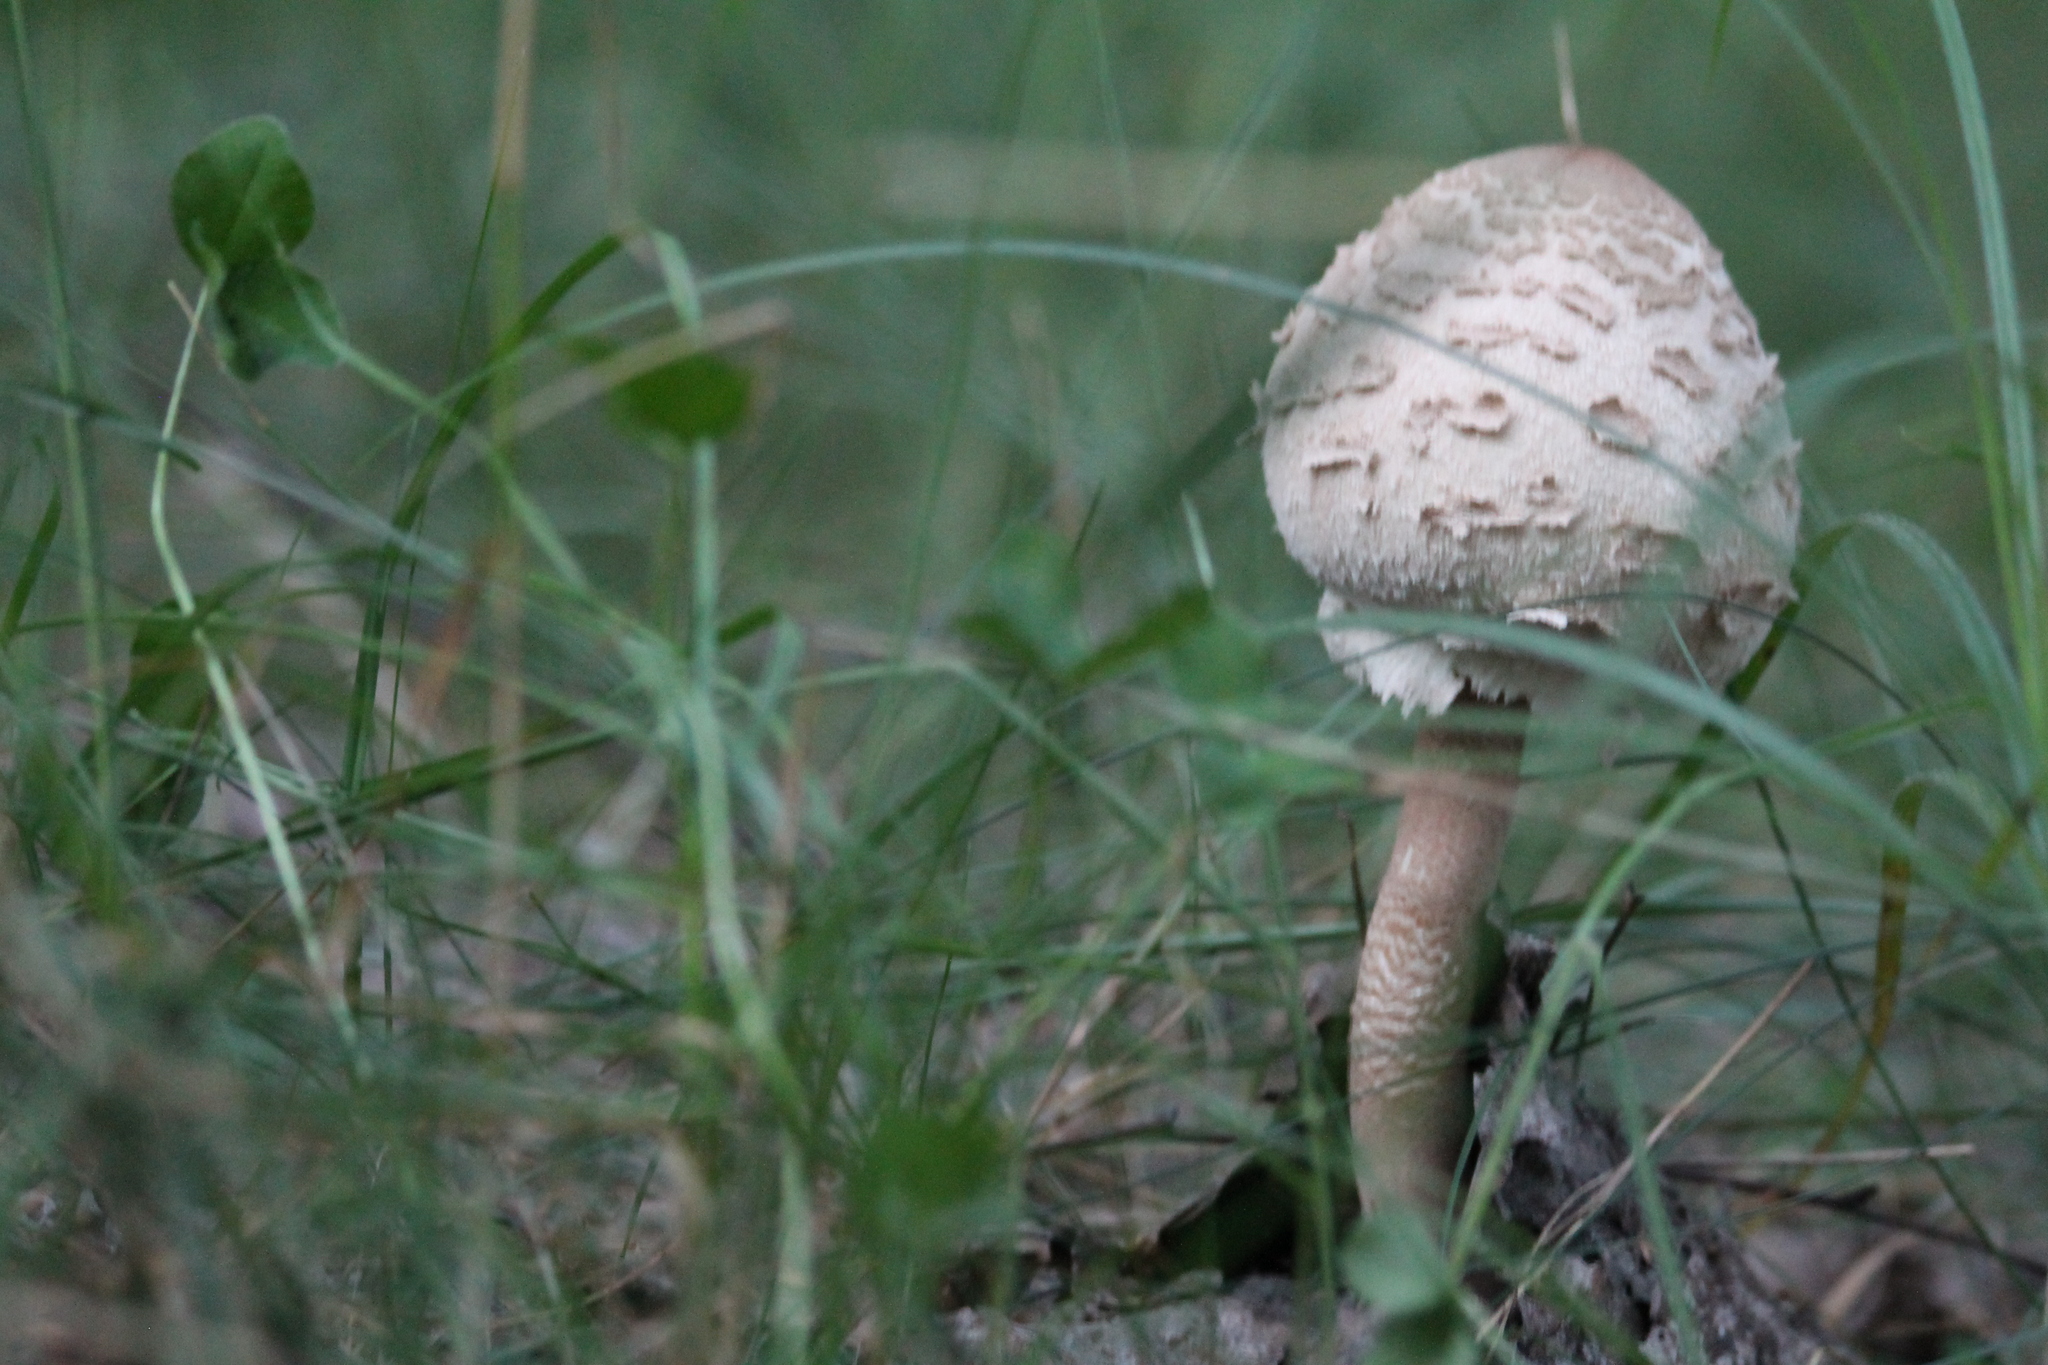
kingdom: Fungi
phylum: Basidiomycota
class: Agaricomycetes
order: Agaricales
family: Agaricaceae
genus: Macrolepiota
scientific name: Macrolepiota procera
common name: Parasol
